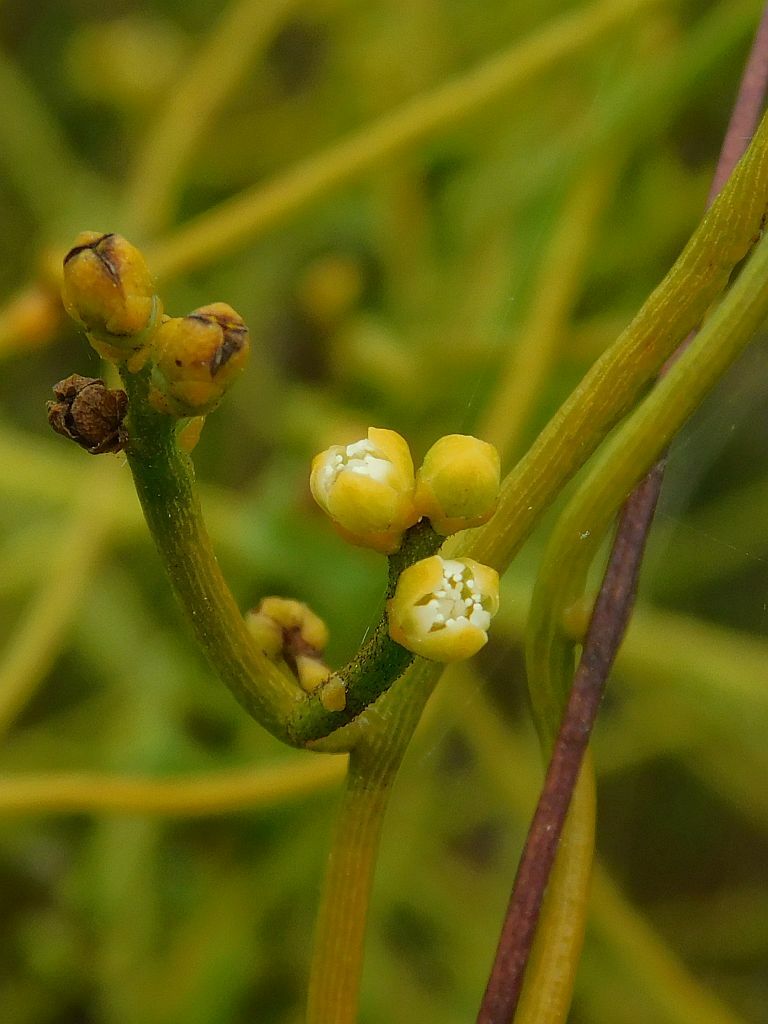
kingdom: Plantae
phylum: Tracheophyta
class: Magnoliopsida
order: Laurales
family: Lauraceae
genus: Cassytha
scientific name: Cassytha ciliolata
